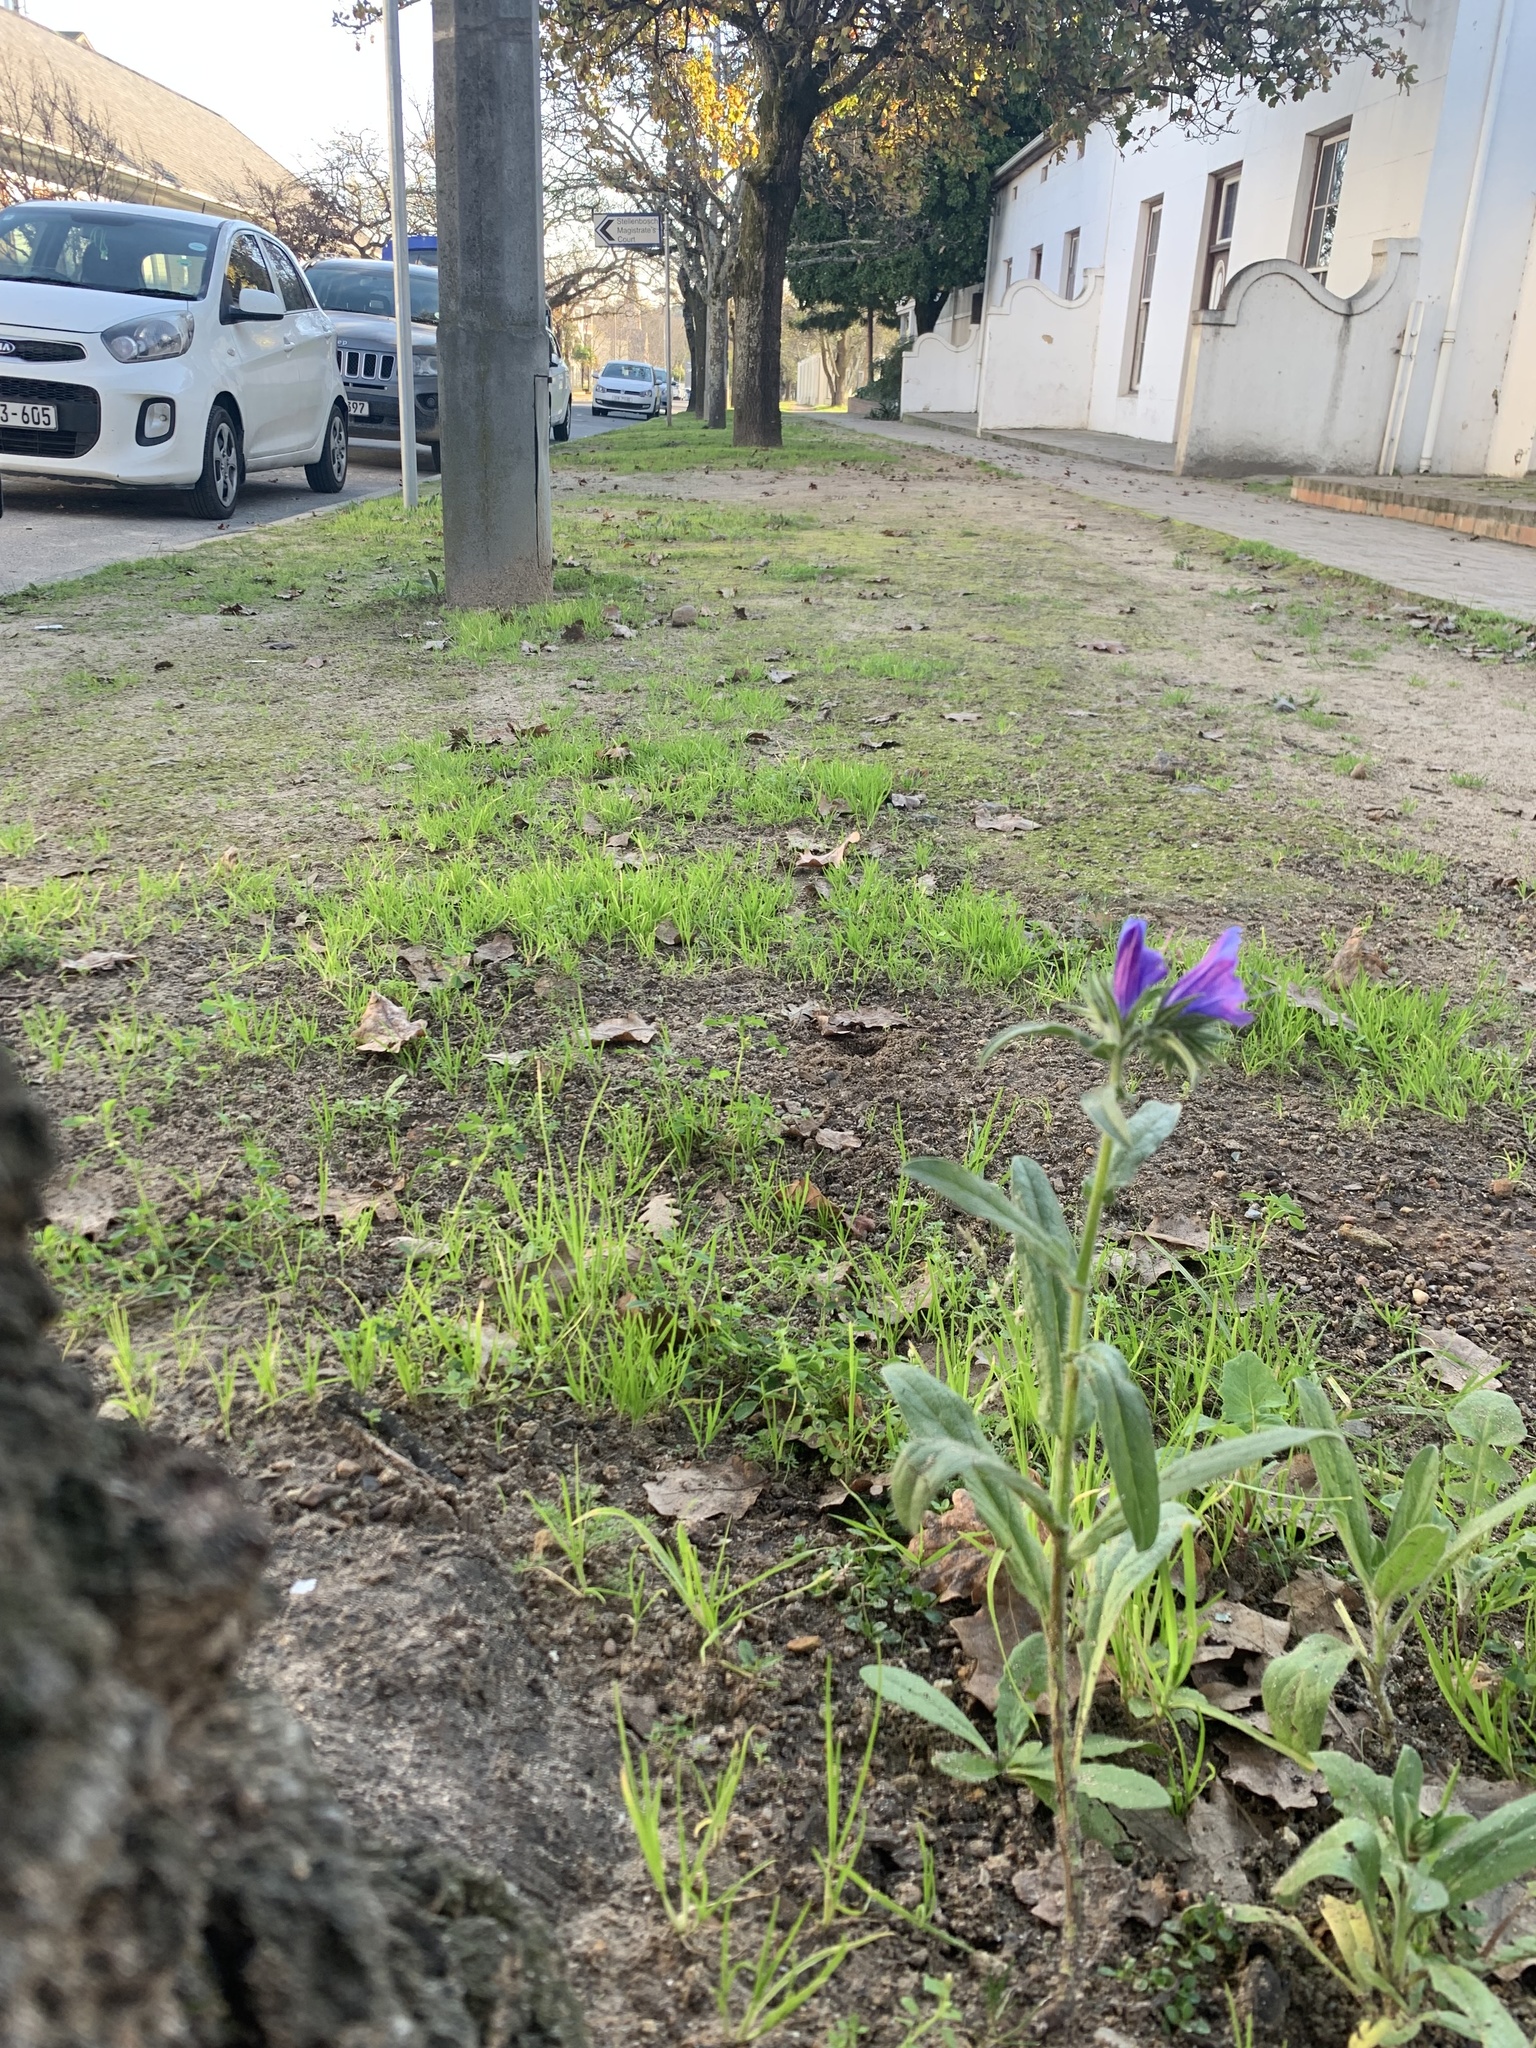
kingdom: Plantae
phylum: Tracheophyta
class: Magnoliopsida
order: Boraginales
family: Boraginaceae
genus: Echium
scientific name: Echium plantagineum
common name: Purple viper's-bugloss
